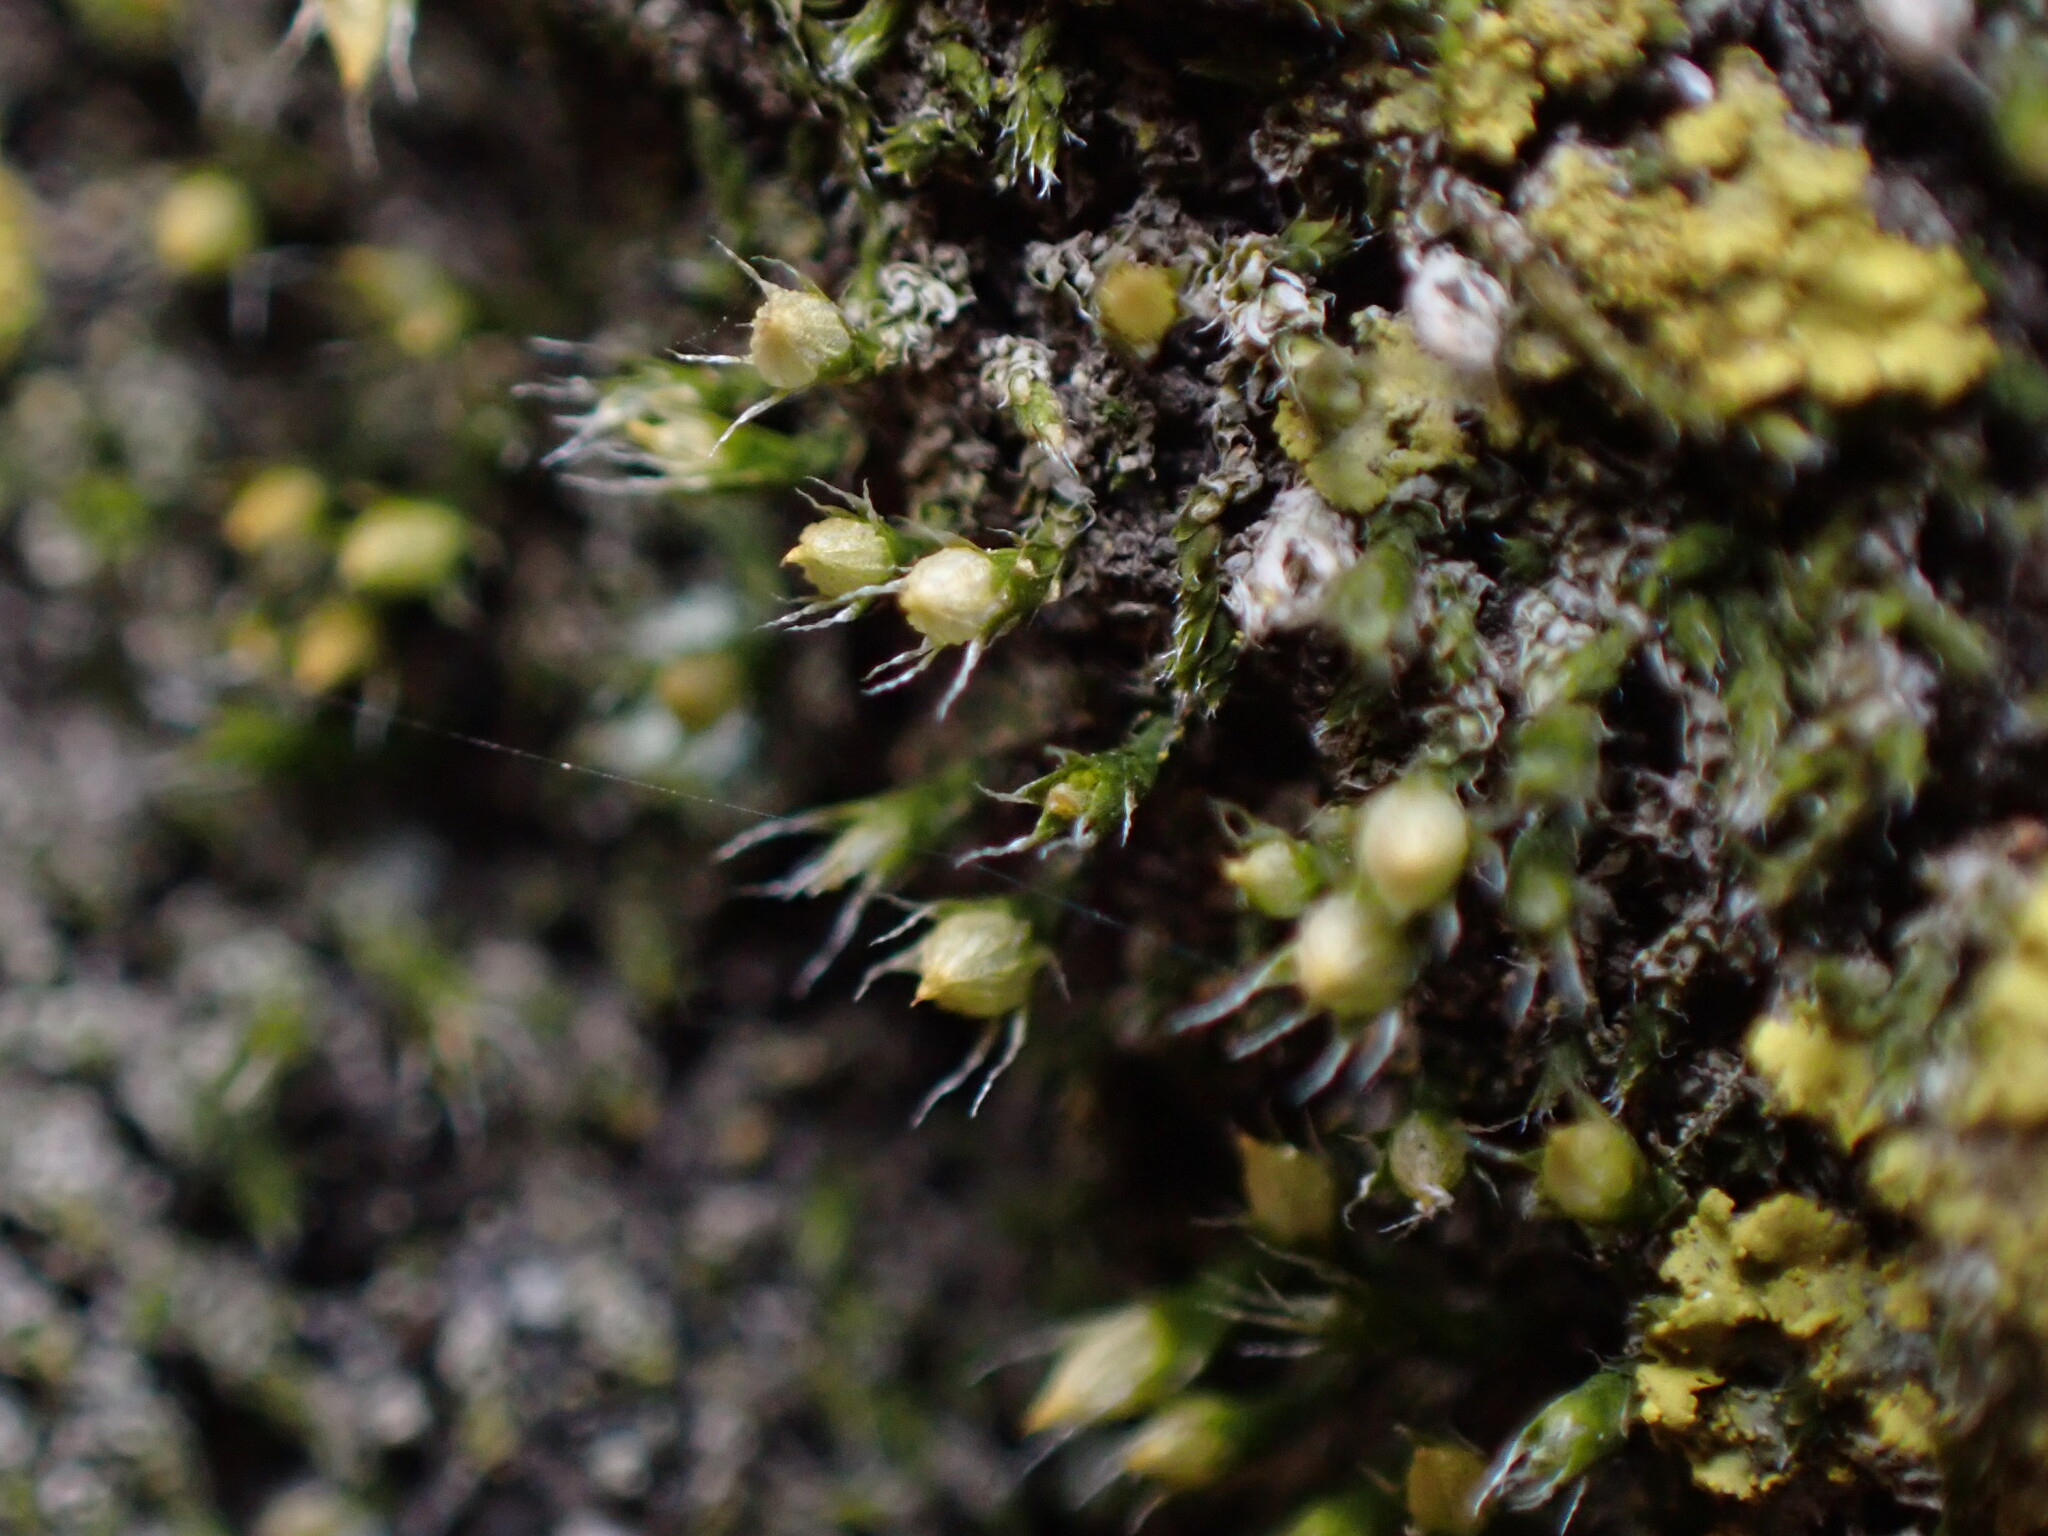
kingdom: Plantae
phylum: Bryophyta
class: Bryopsida
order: Dicranales
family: Erpodiaceae
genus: Venturiella
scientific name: Venturiella sinensis
